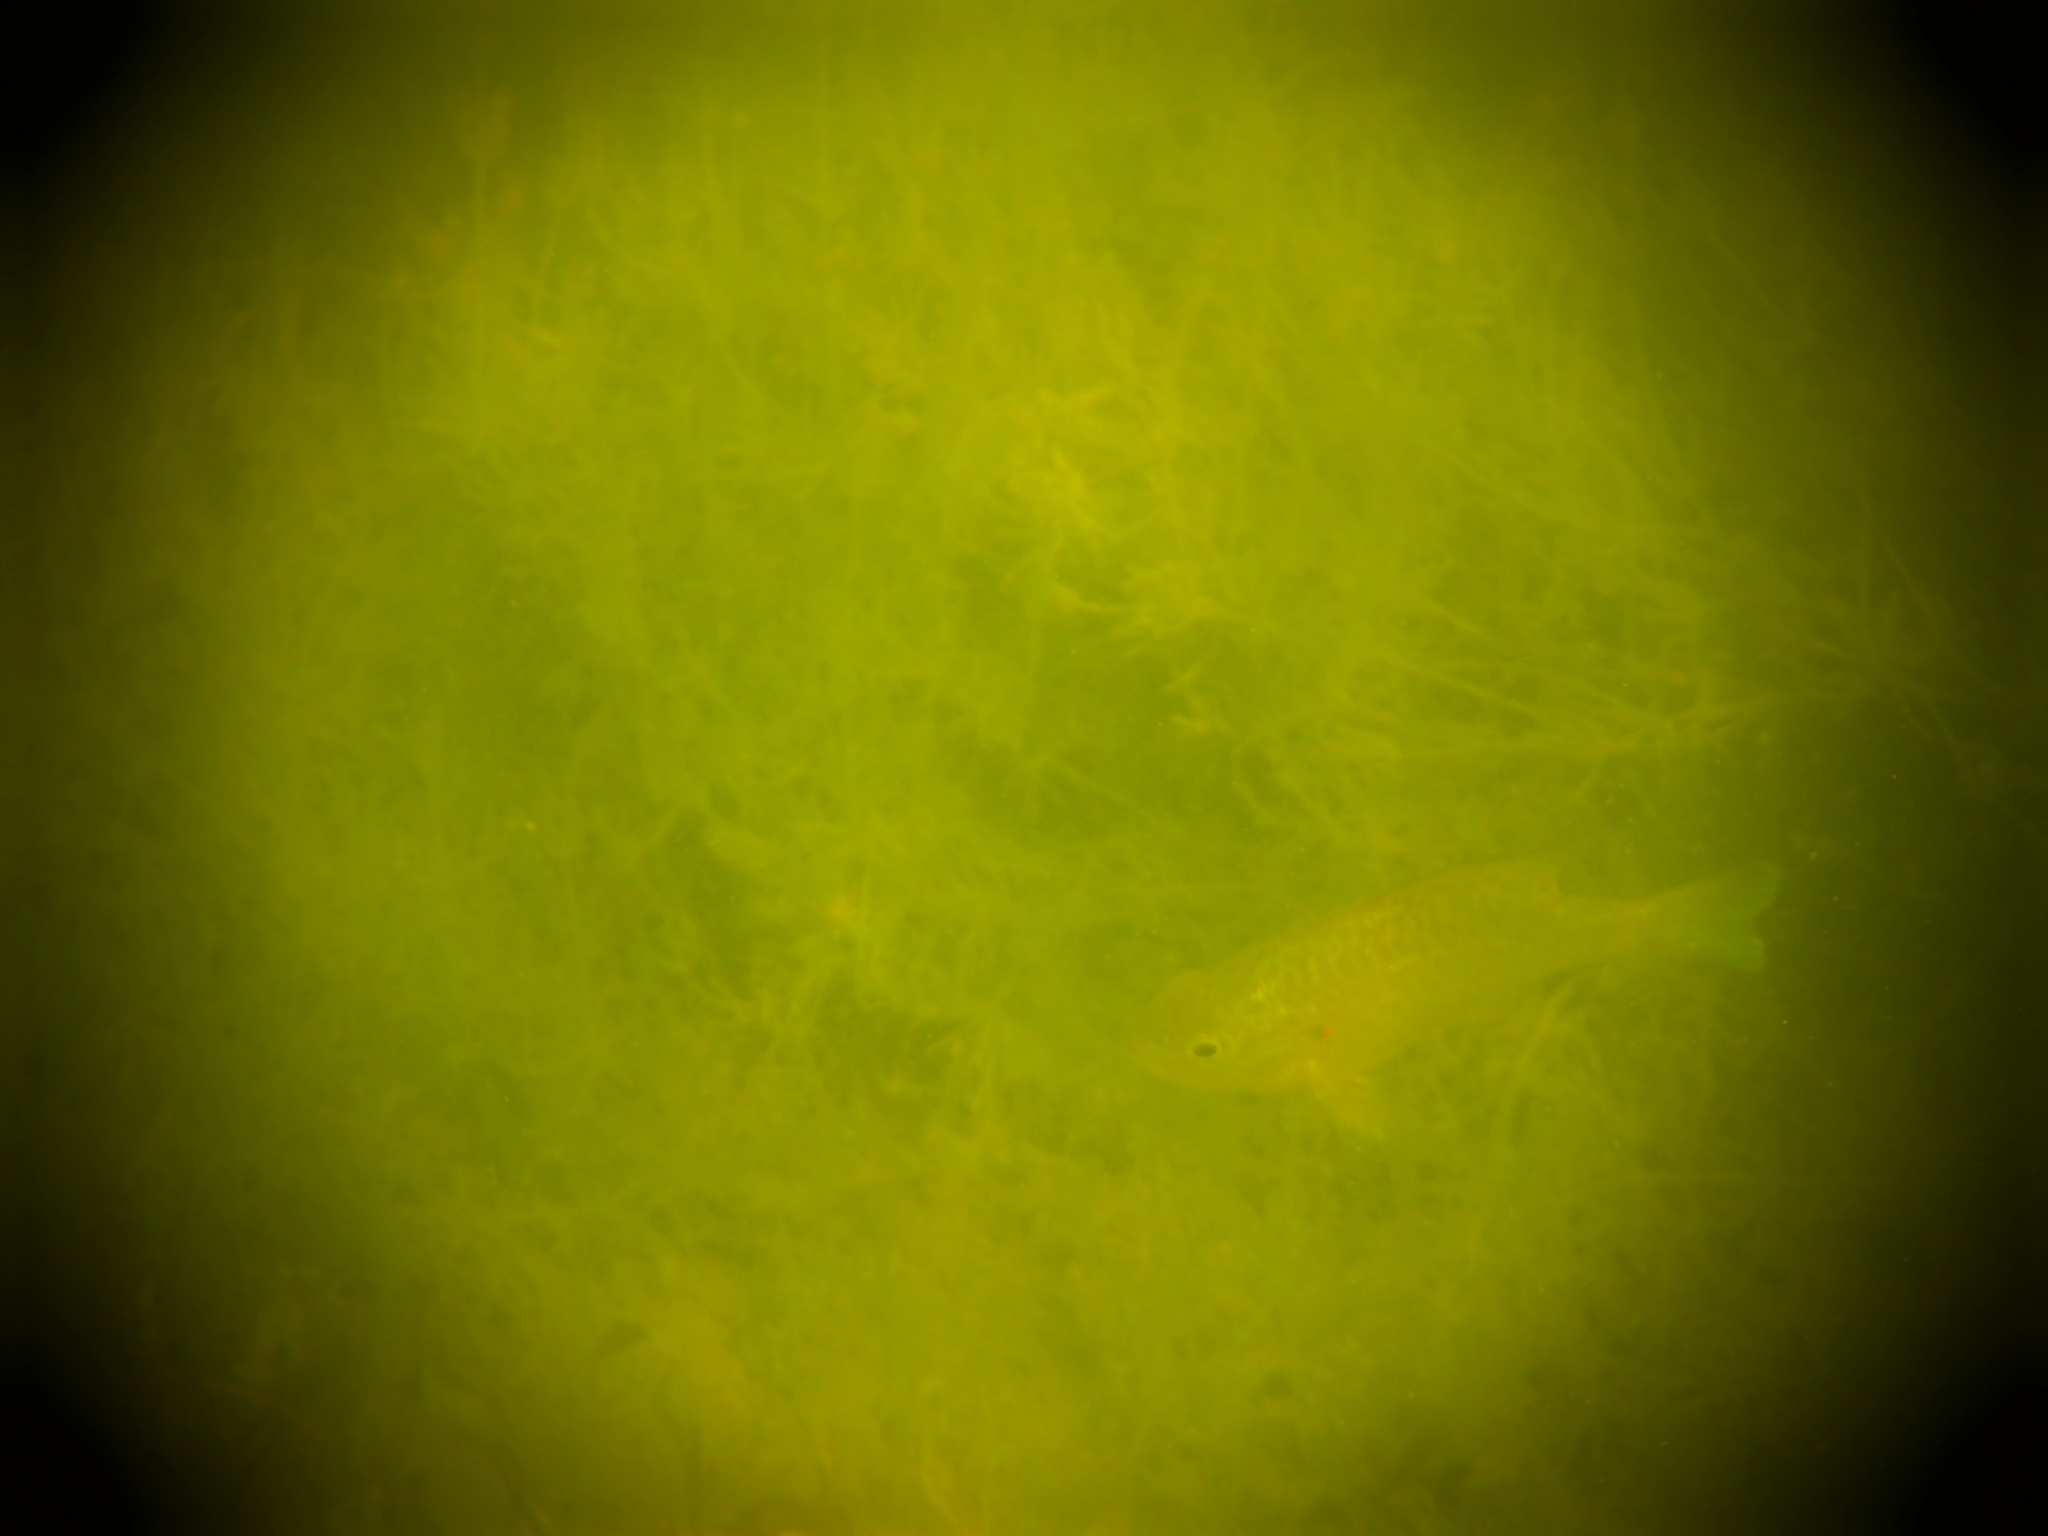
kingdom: Animalia
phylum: Chordata
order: Perciformes
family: Centrarchidae
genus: Lepomis
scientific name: Lepomis gibbosus
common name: Pumpkinseed
